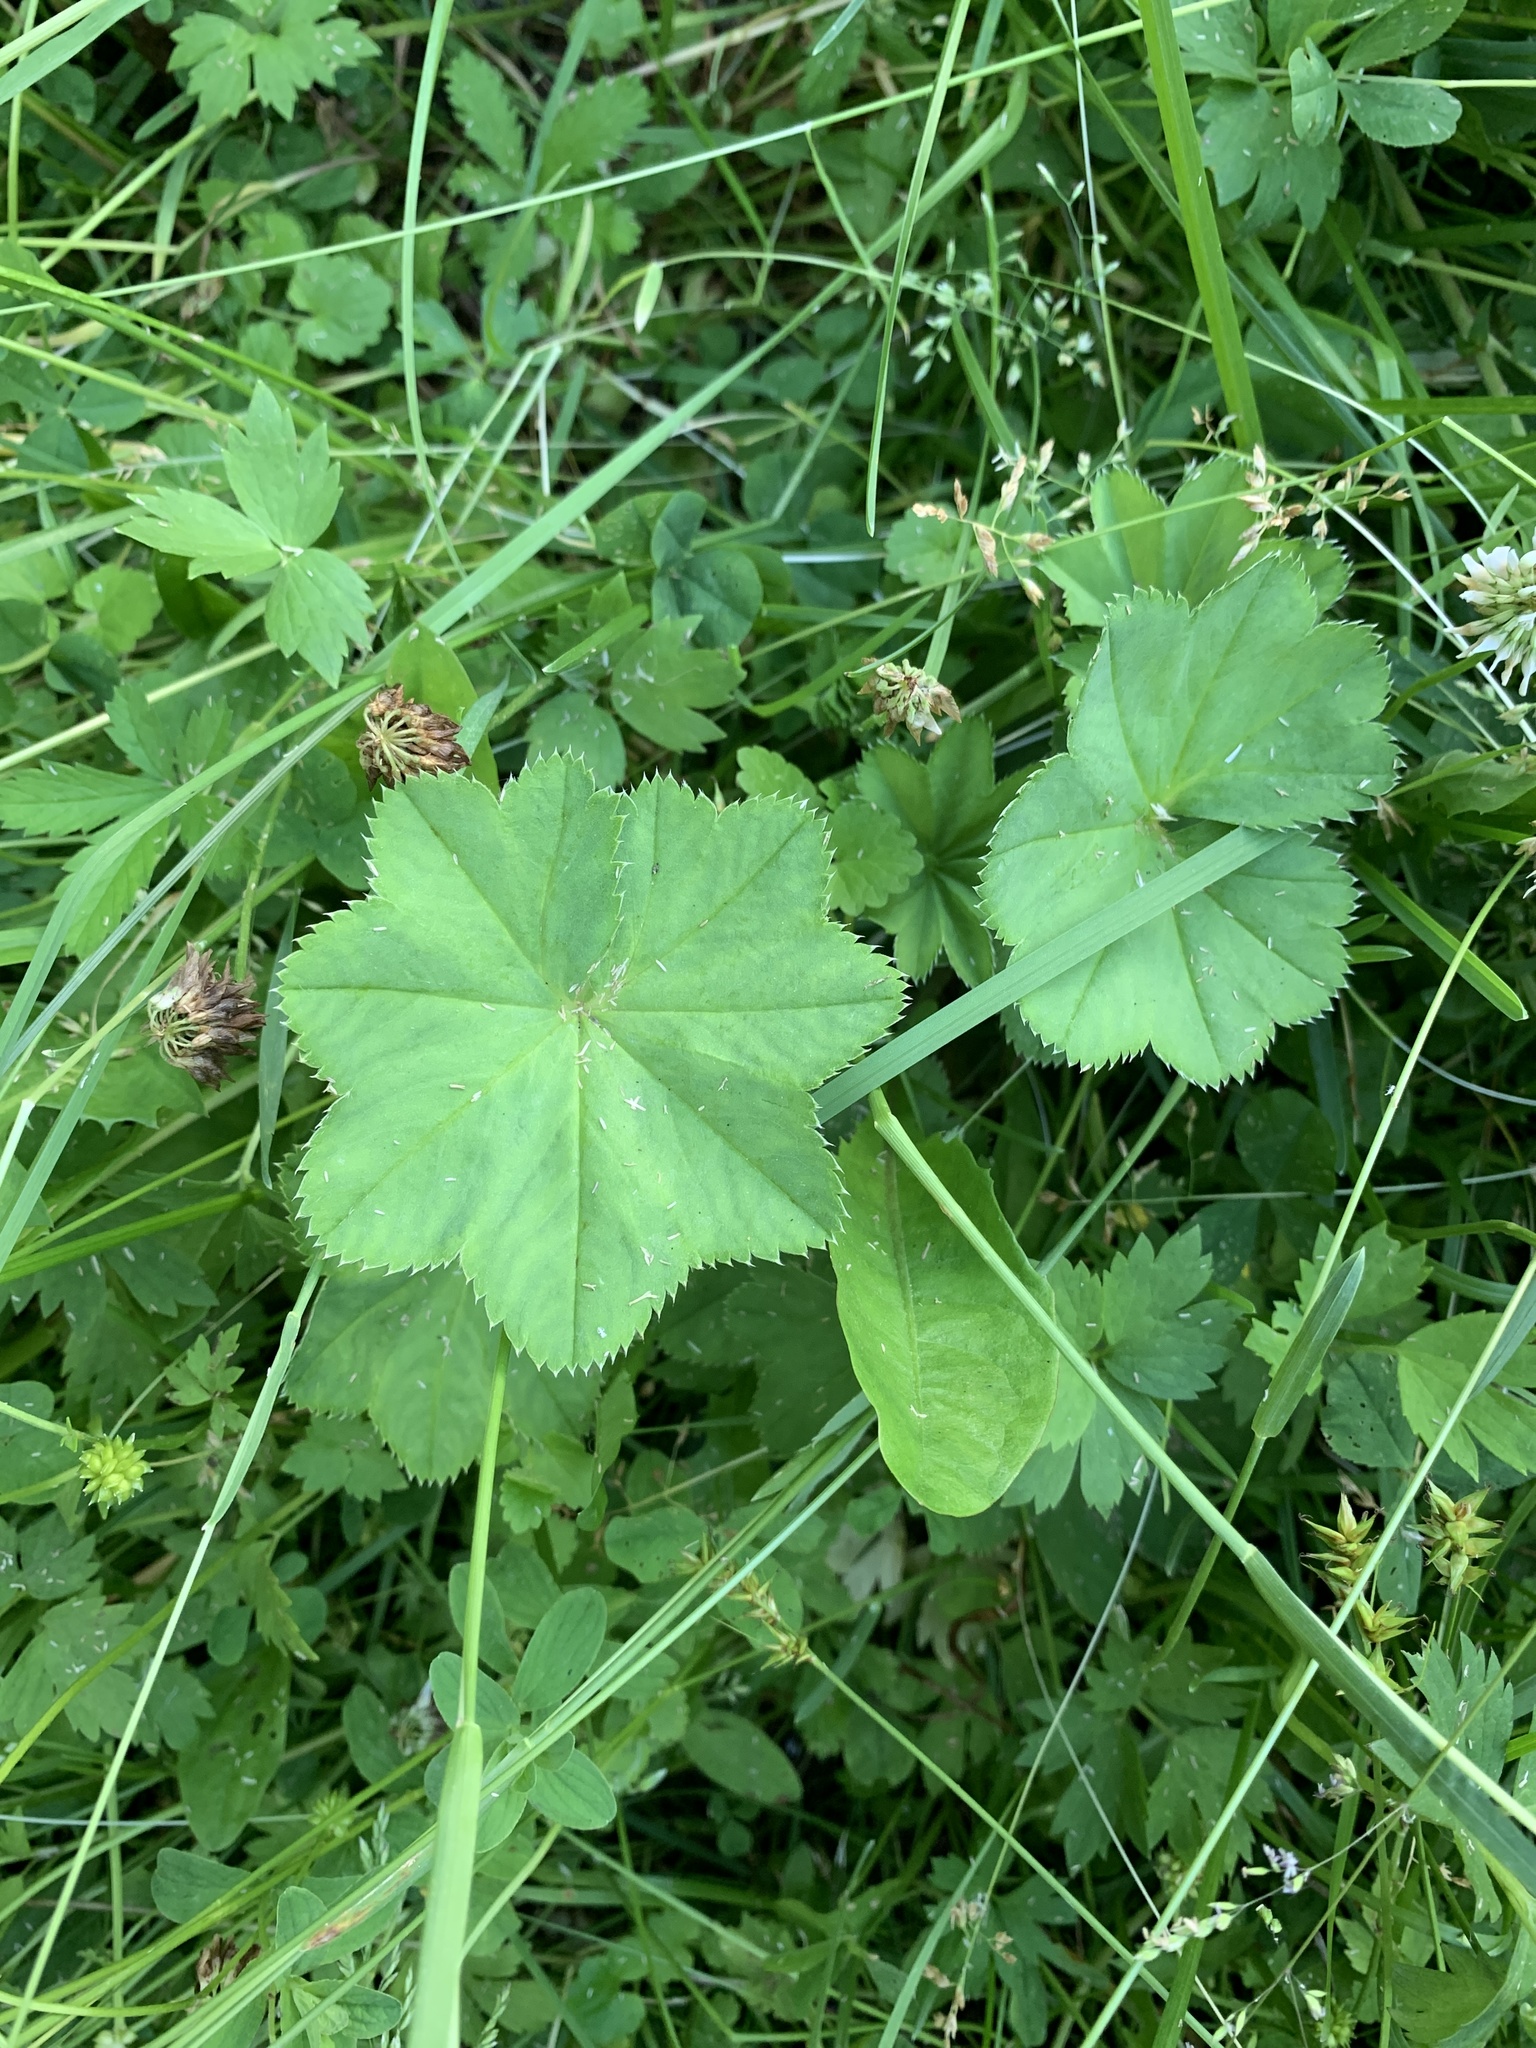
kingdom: Plantae
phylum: Tracheophyta
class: Magnoliopsida
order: Rosales
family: Rosaceae
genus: Alchemilla
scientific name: Alchemilla
